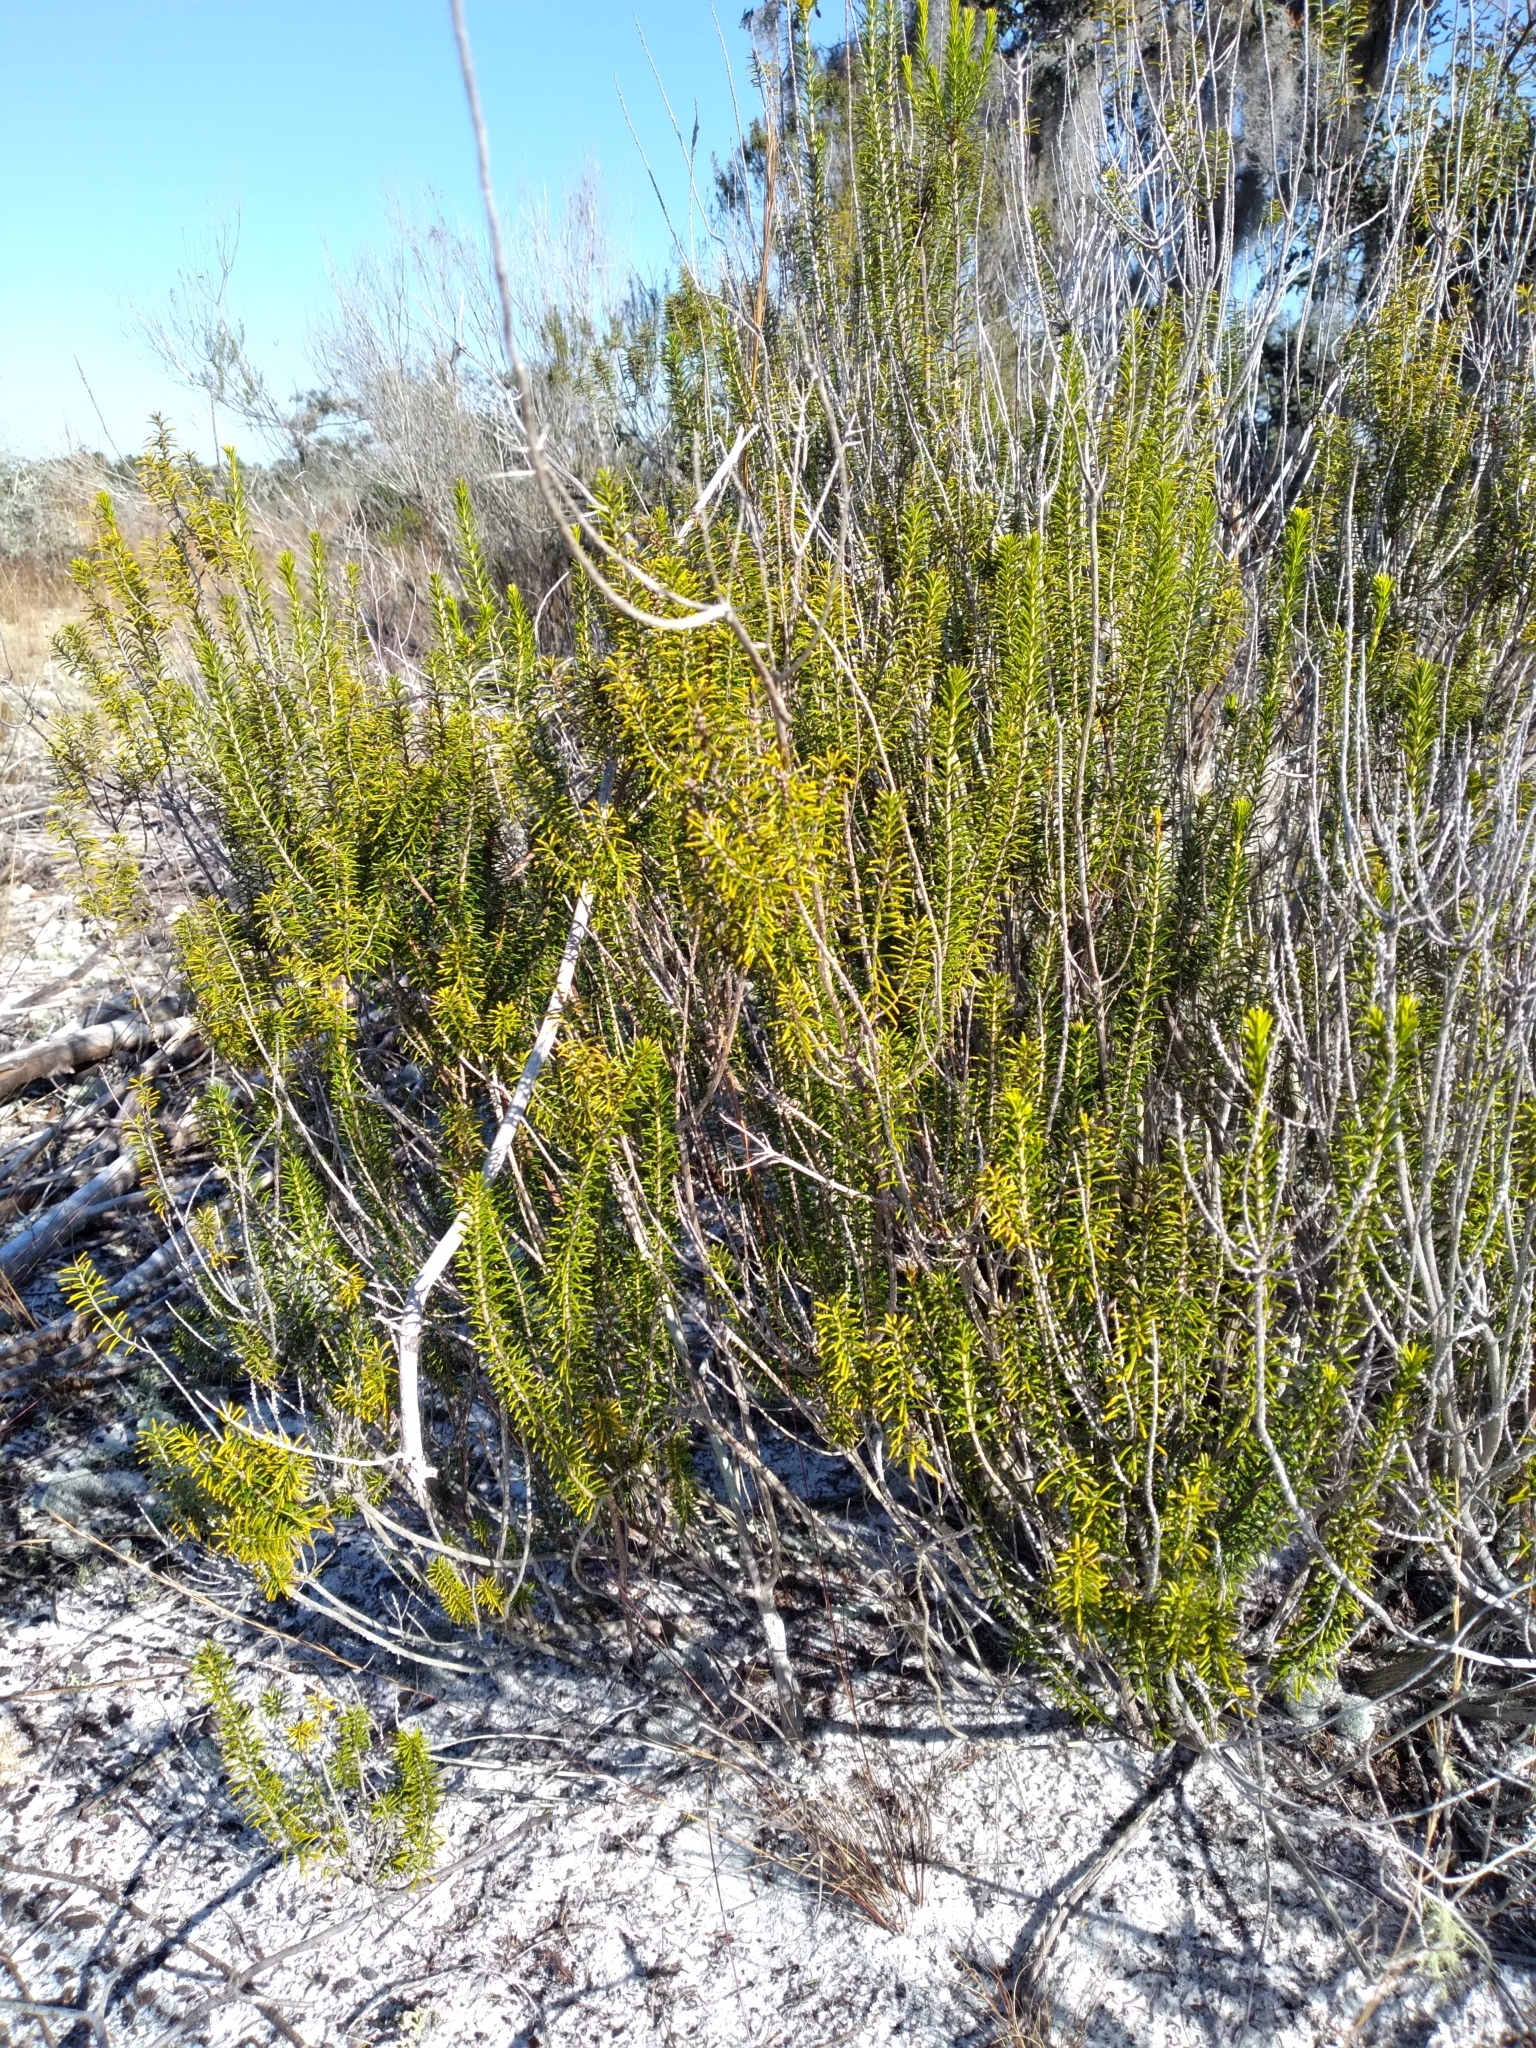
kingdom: Plantae
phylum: Tracheophyta
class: Magnoliopsida
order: Ericales
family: Ericaceae
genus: Ceratiola
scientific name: Ceratiola ericoides
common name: Sandhill-rosemary
